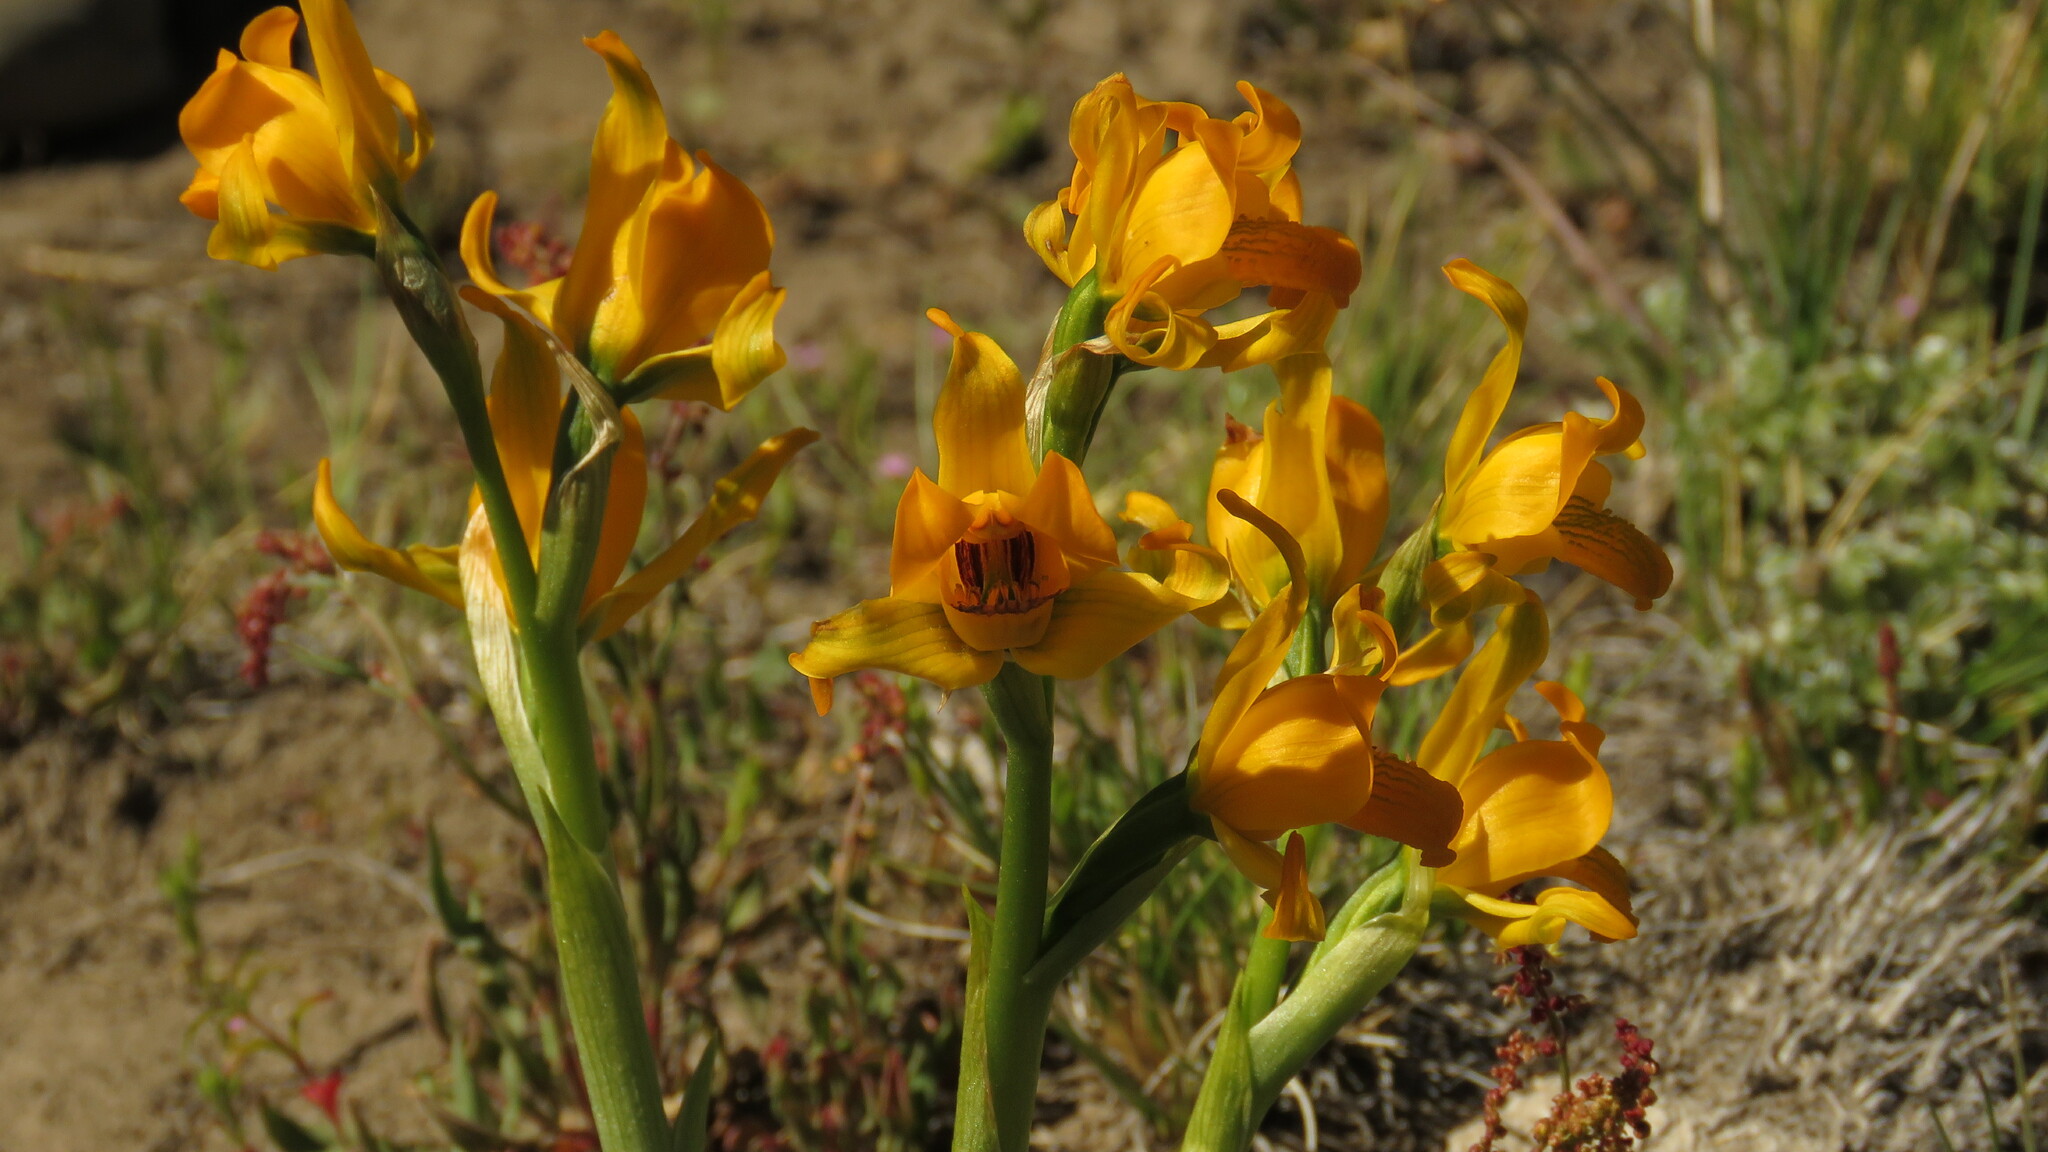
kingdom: Plantae
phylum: Tracheophyta
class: Liliopsida
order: Asparagales
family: Orchidaceae
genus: Chloraea
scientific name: Chloraea alpina
